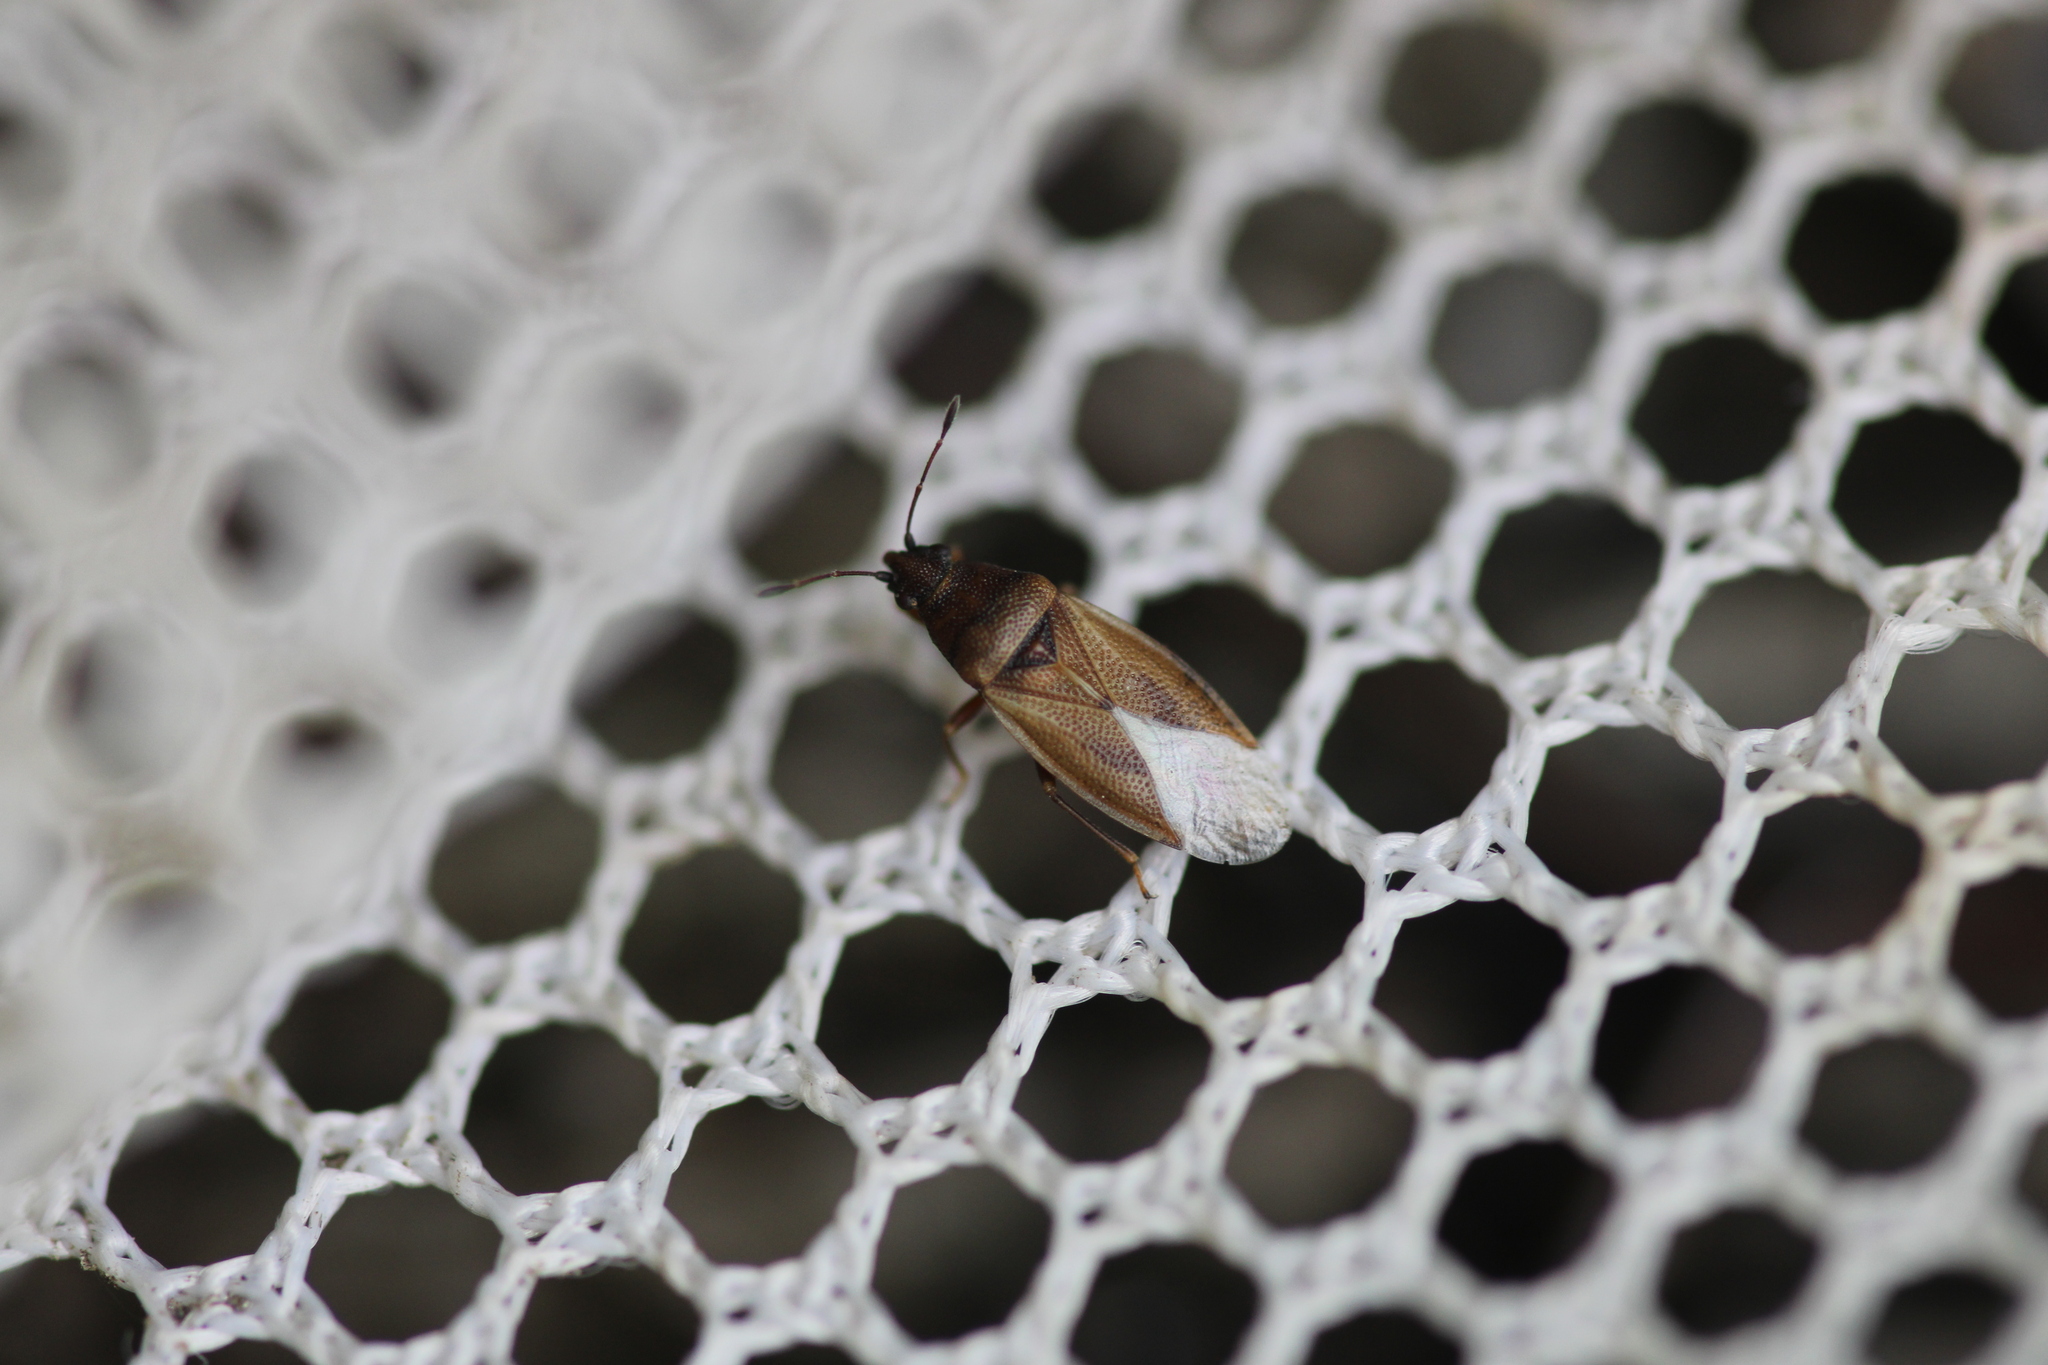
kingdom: Animalia
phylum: Arthropoda
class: Insecta
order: Hemiptera
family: Cymidae
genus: Cymus
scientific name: Cymus glandicolor
